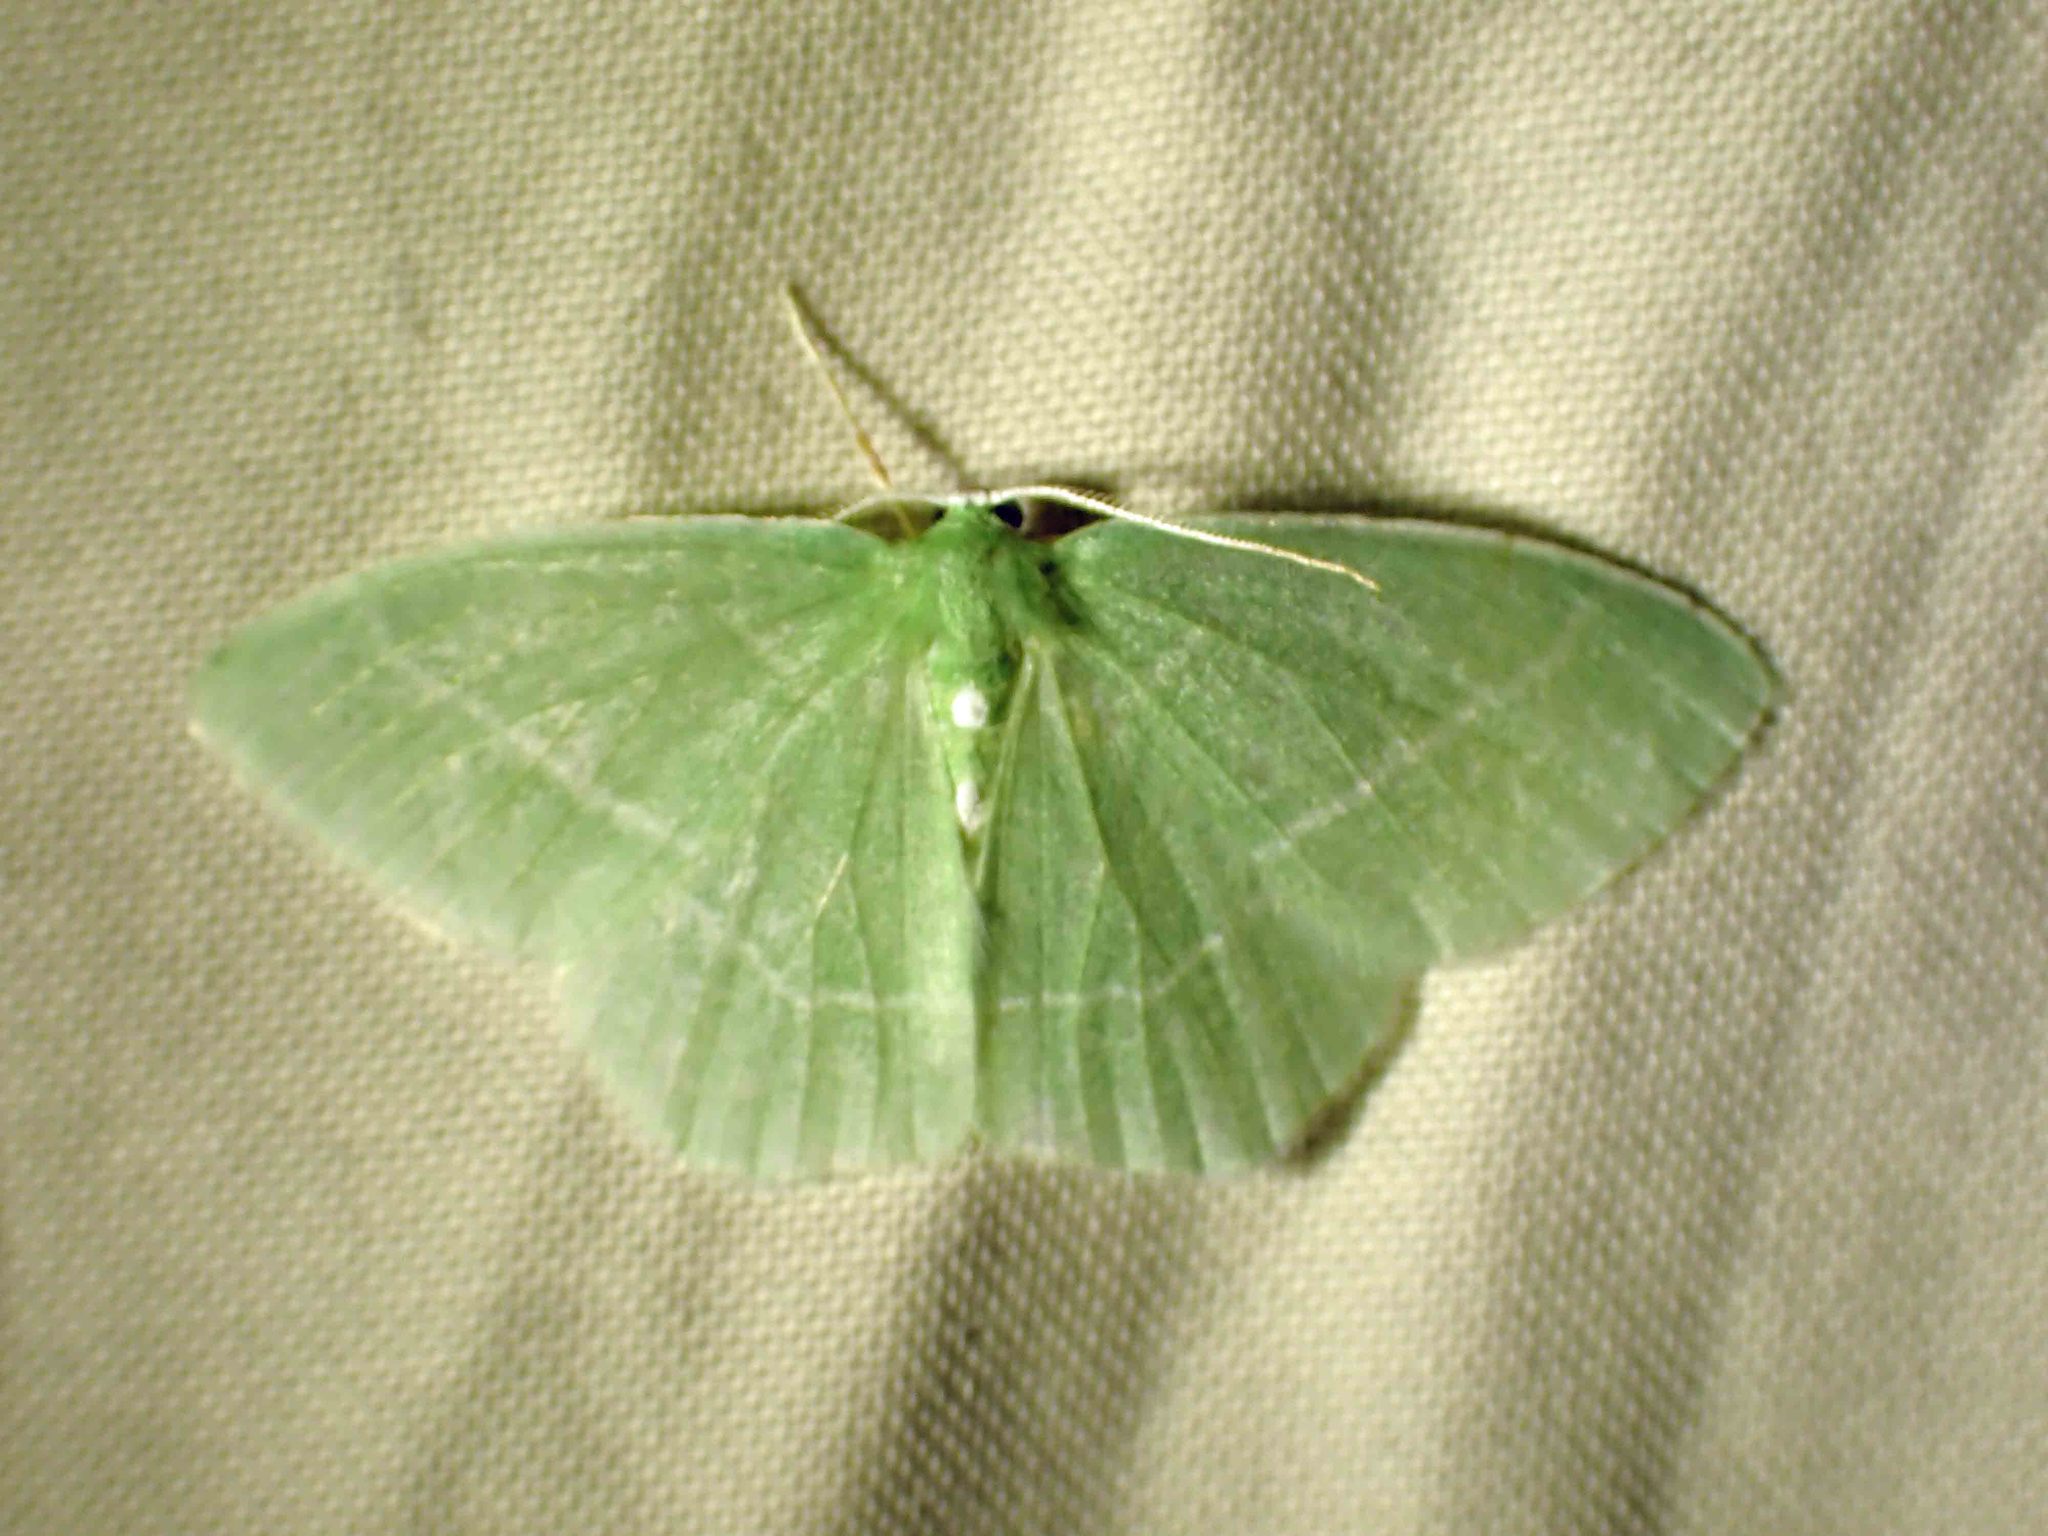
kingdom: Animalia
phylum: Arthropoda
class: Insecta
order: Lepidoptera
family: Geometridae
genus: Nemoria
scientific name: Nemoria mimosaria
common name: White-fringed emerald
